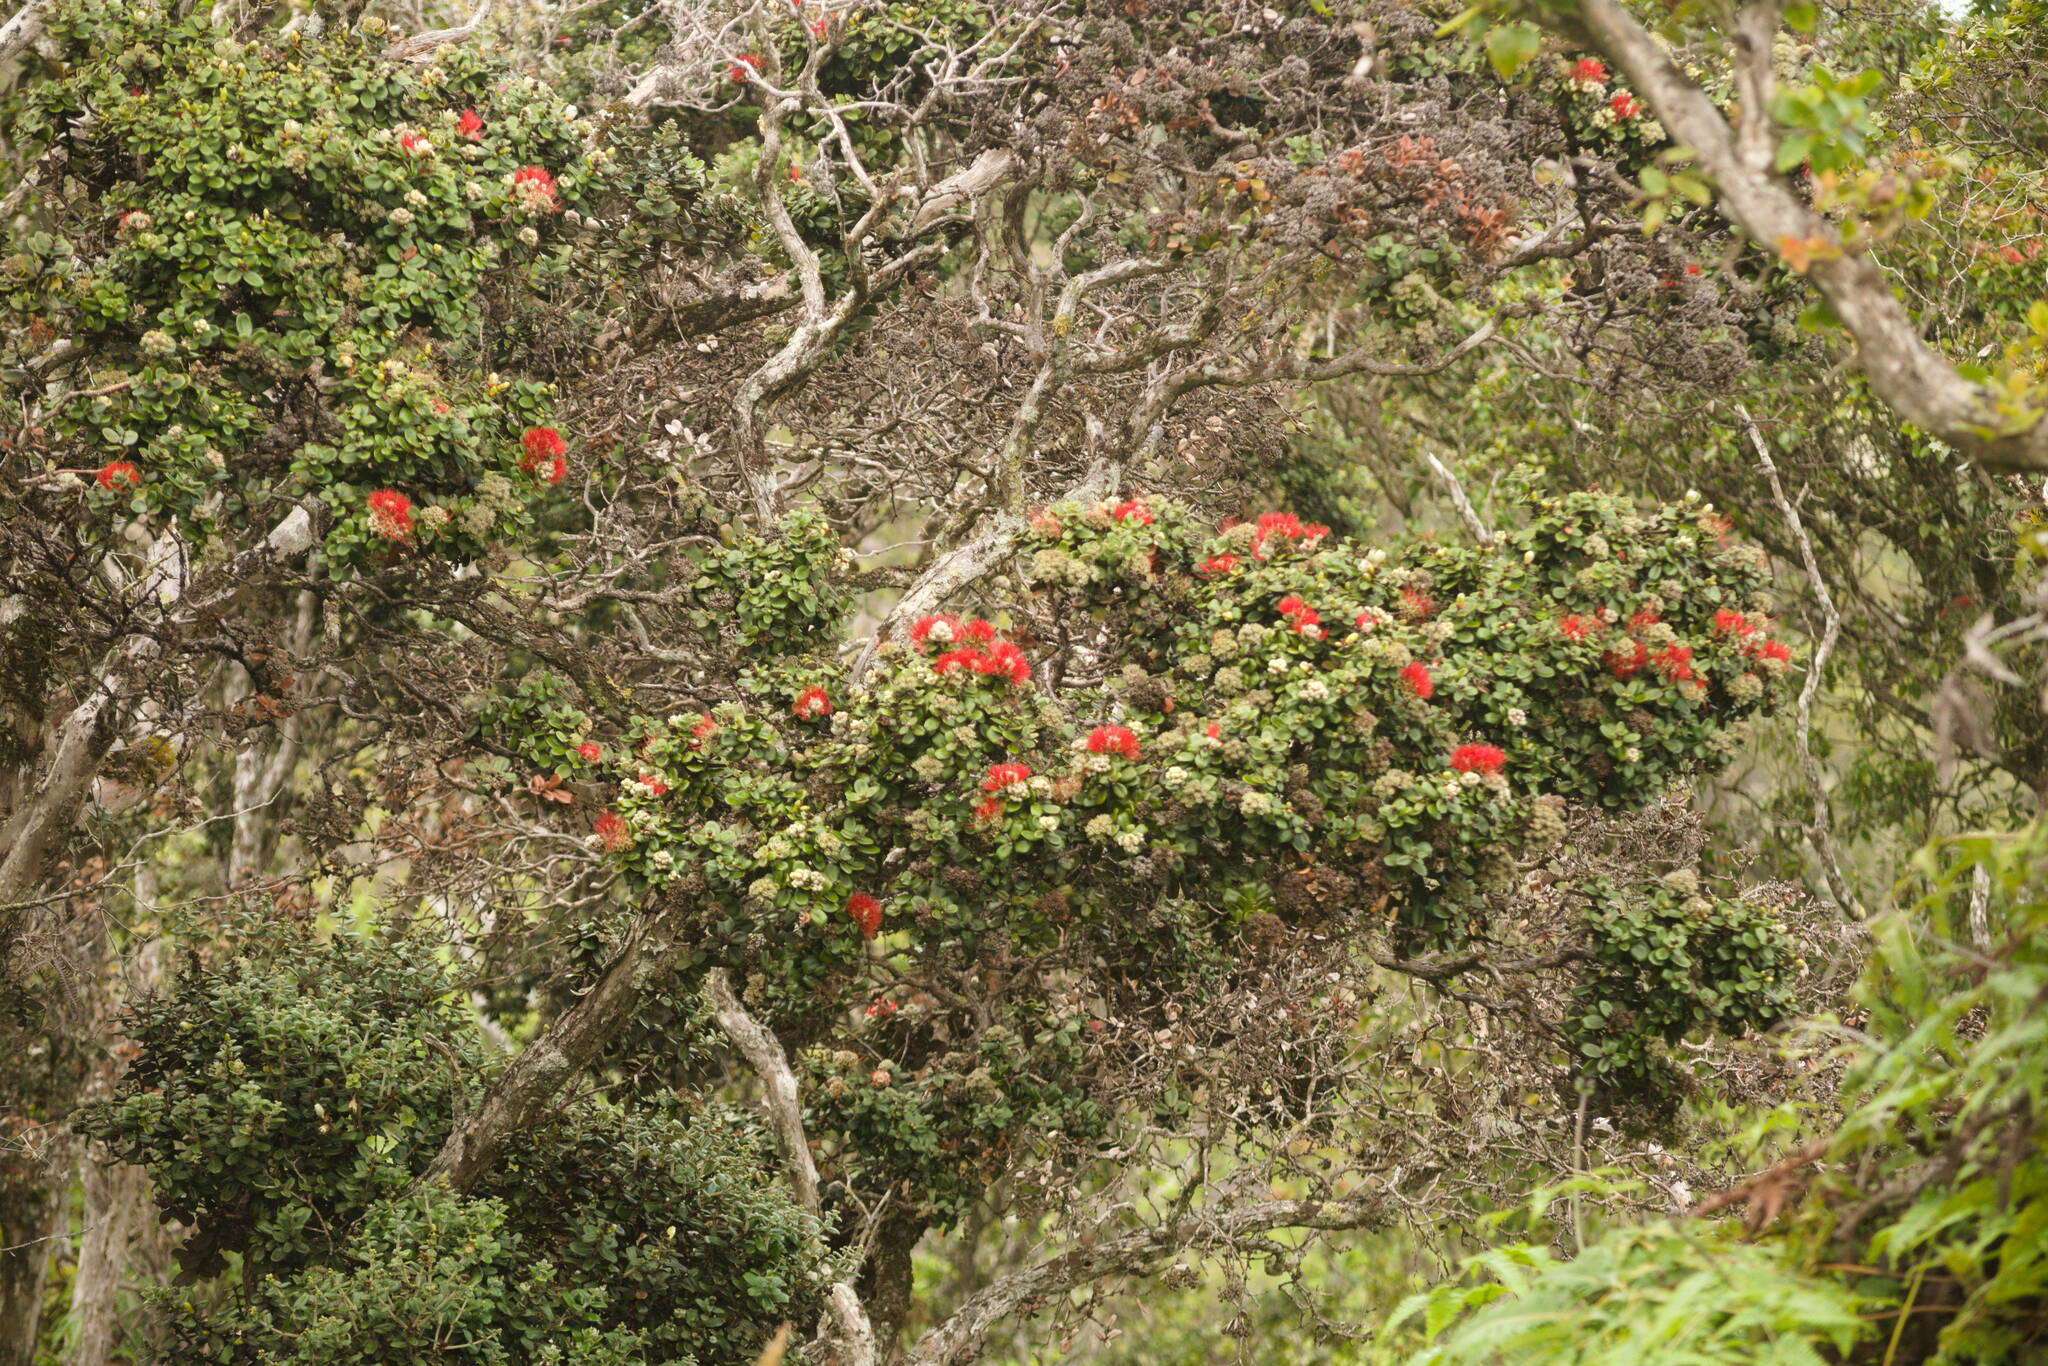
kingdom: Plantae
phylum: Tracheophyta
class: Magnoliopsida
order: Myrtales
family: Myrtaceae
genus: Metrosideros
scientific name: Metrosideros polymorpha
